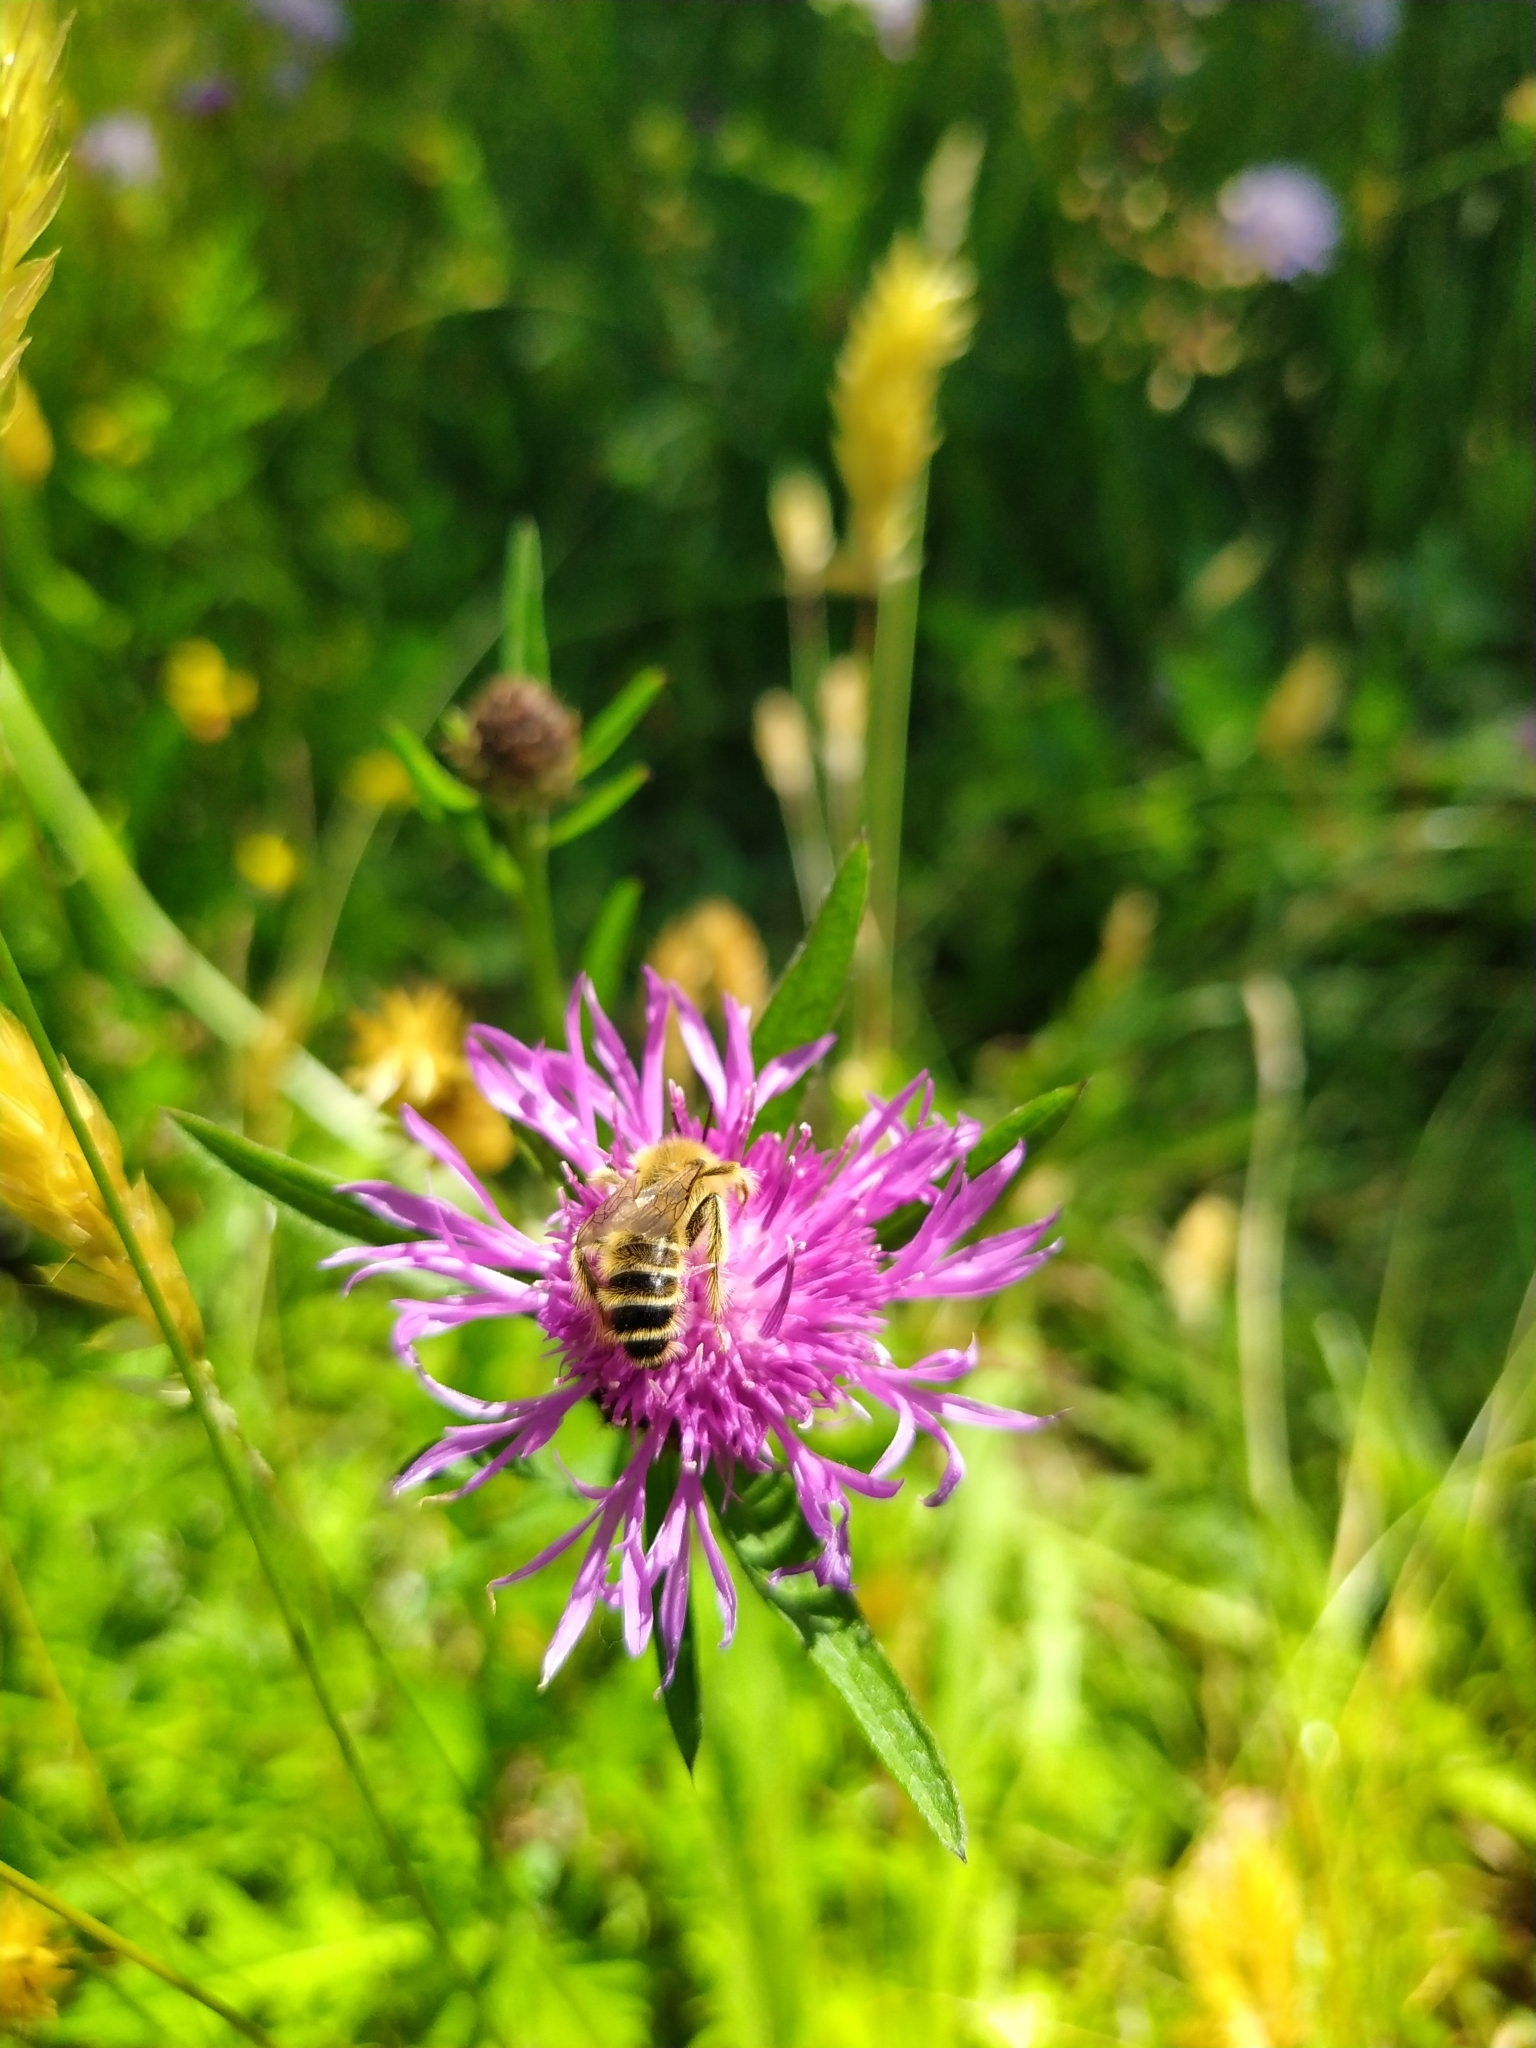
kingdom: Animalia
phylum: Arthropoda
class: Insecta
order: Hymenoptera
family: Melittidae
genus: Dasypoda
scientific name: Dasypoda hirtipes
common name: Pantaloon bee
